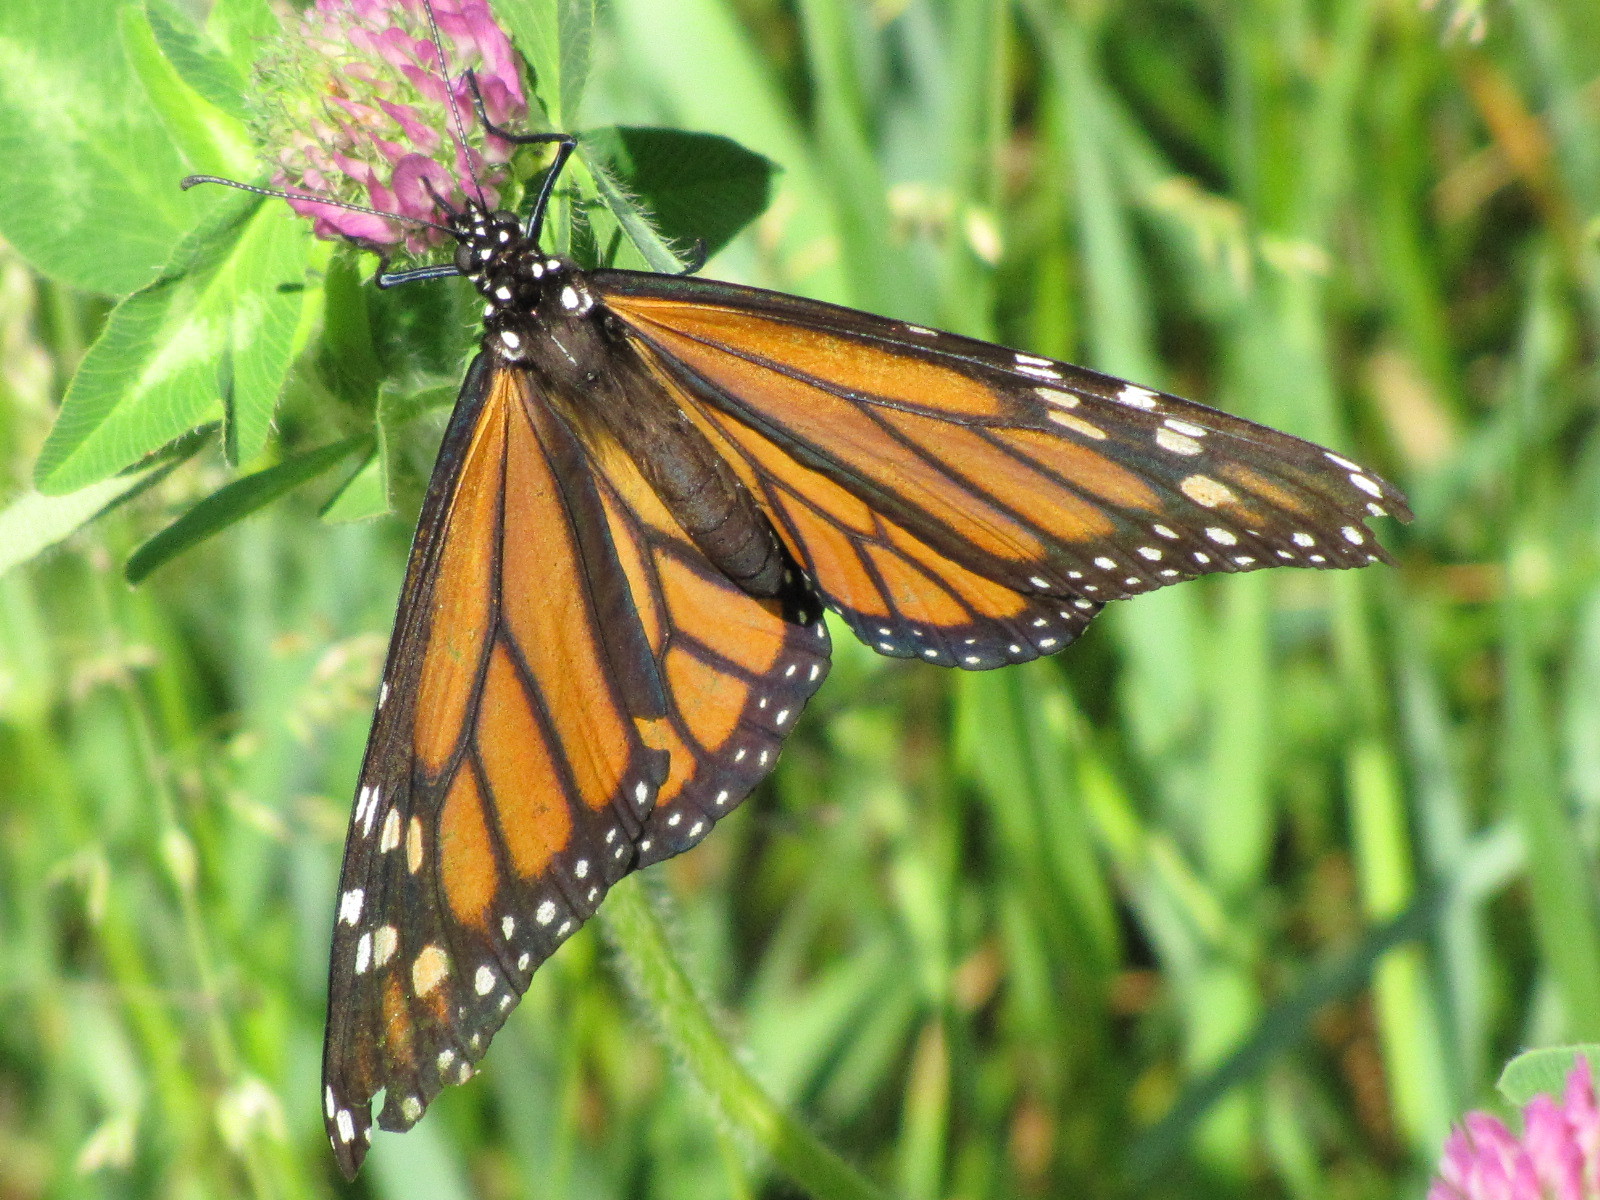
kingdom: Animalia
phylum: Arthropoda
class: Insecta
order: Lepidoptera
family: Nymphalidae
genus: Danaus
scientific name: Danaus plexippus
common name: Monarch
